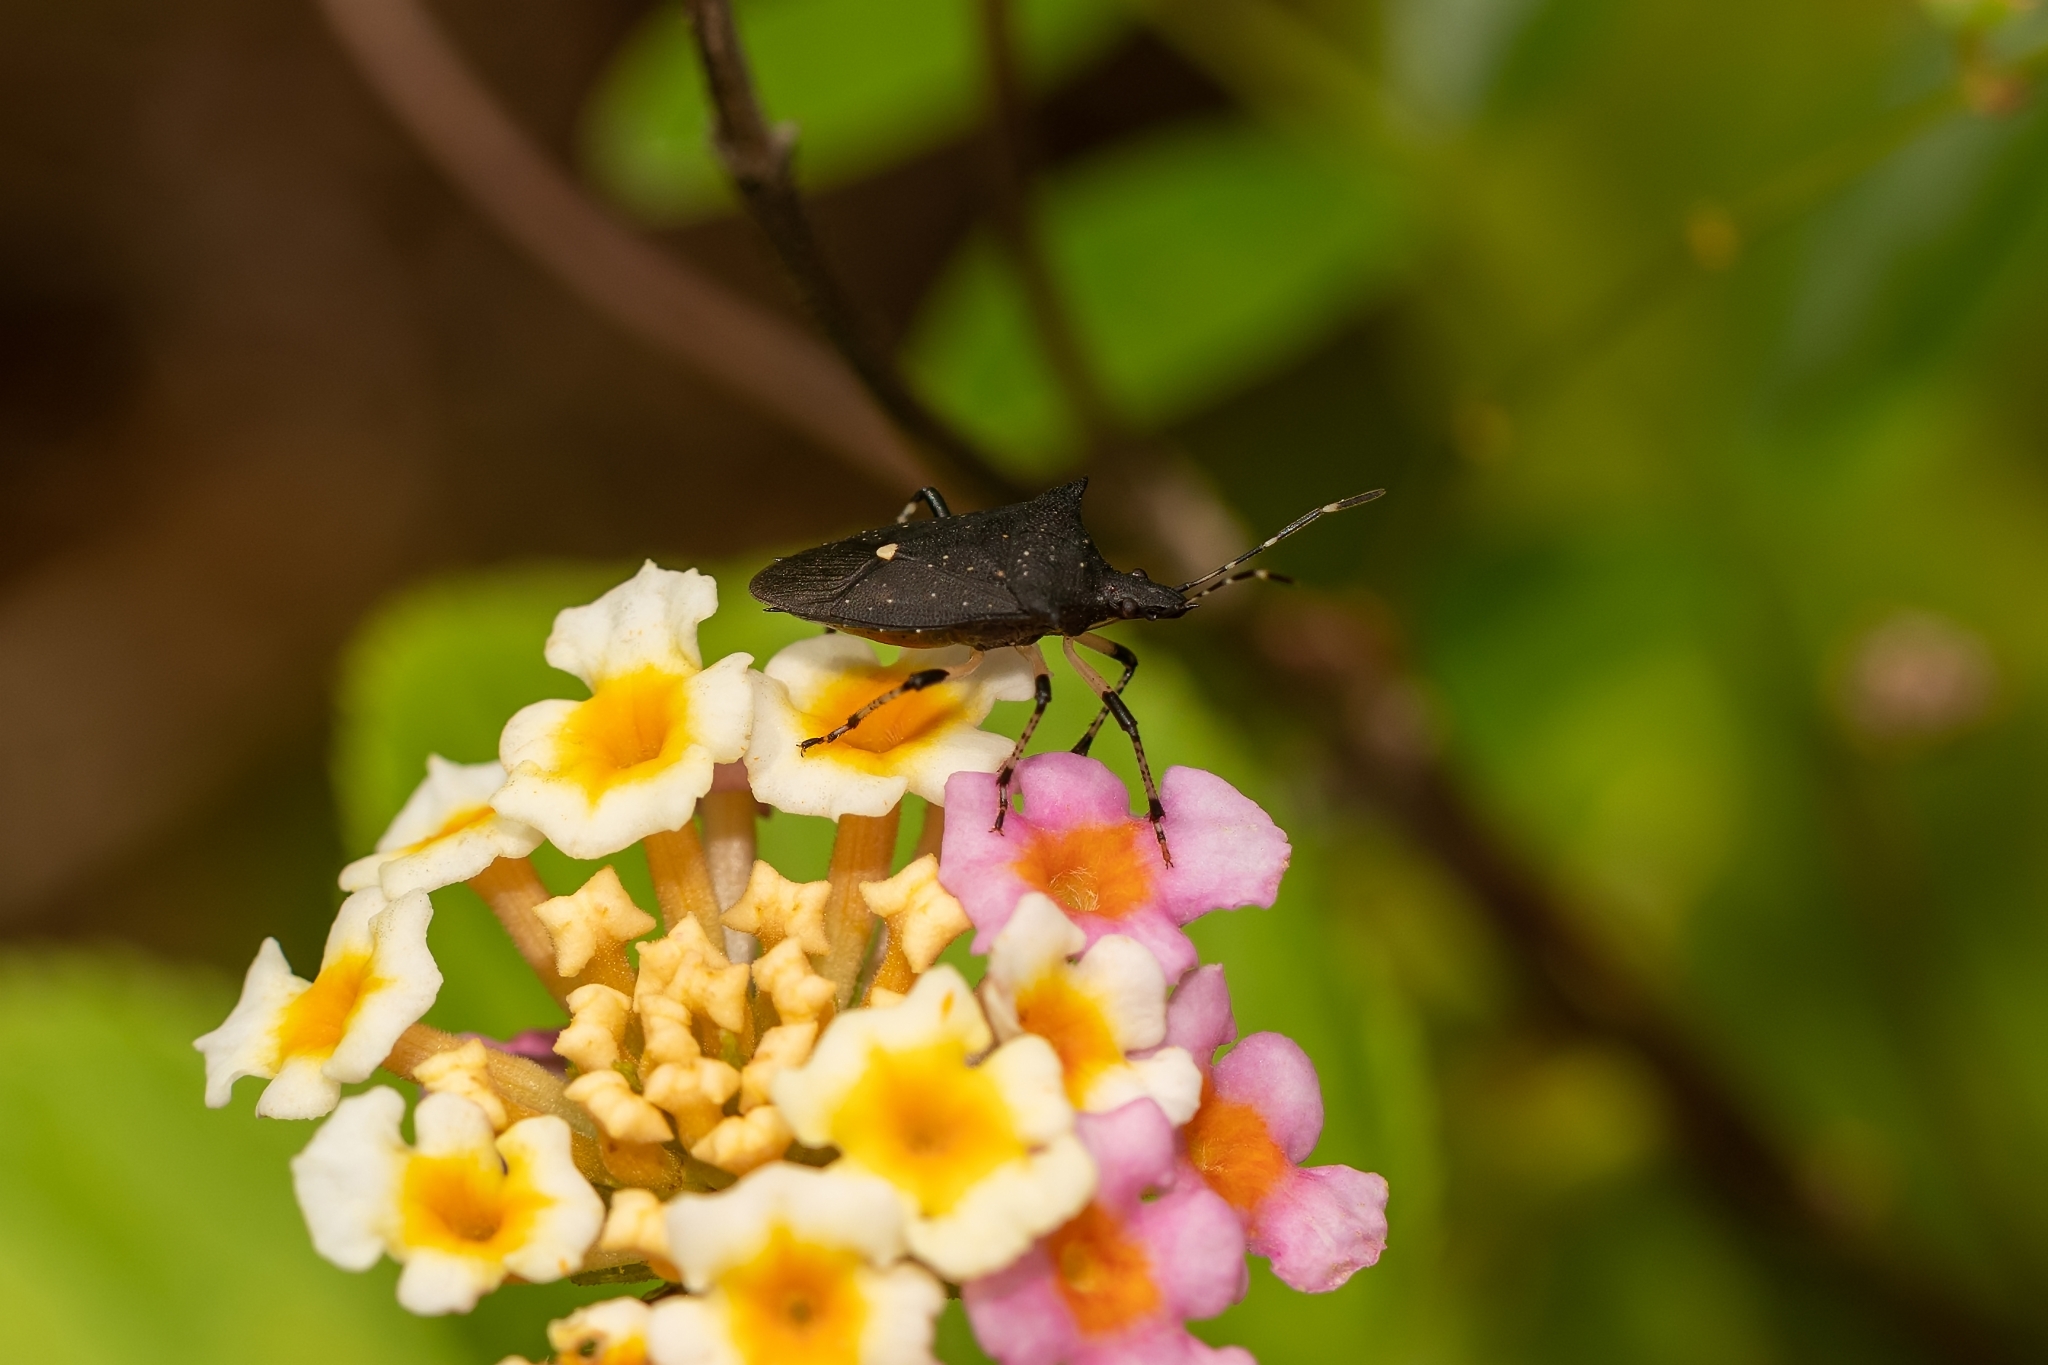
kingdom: Animalia
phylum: Arthropoda
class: Insecta
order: Hemiptera
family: Pentatomidae
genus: Proxys
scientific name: Proxys punctulatus
